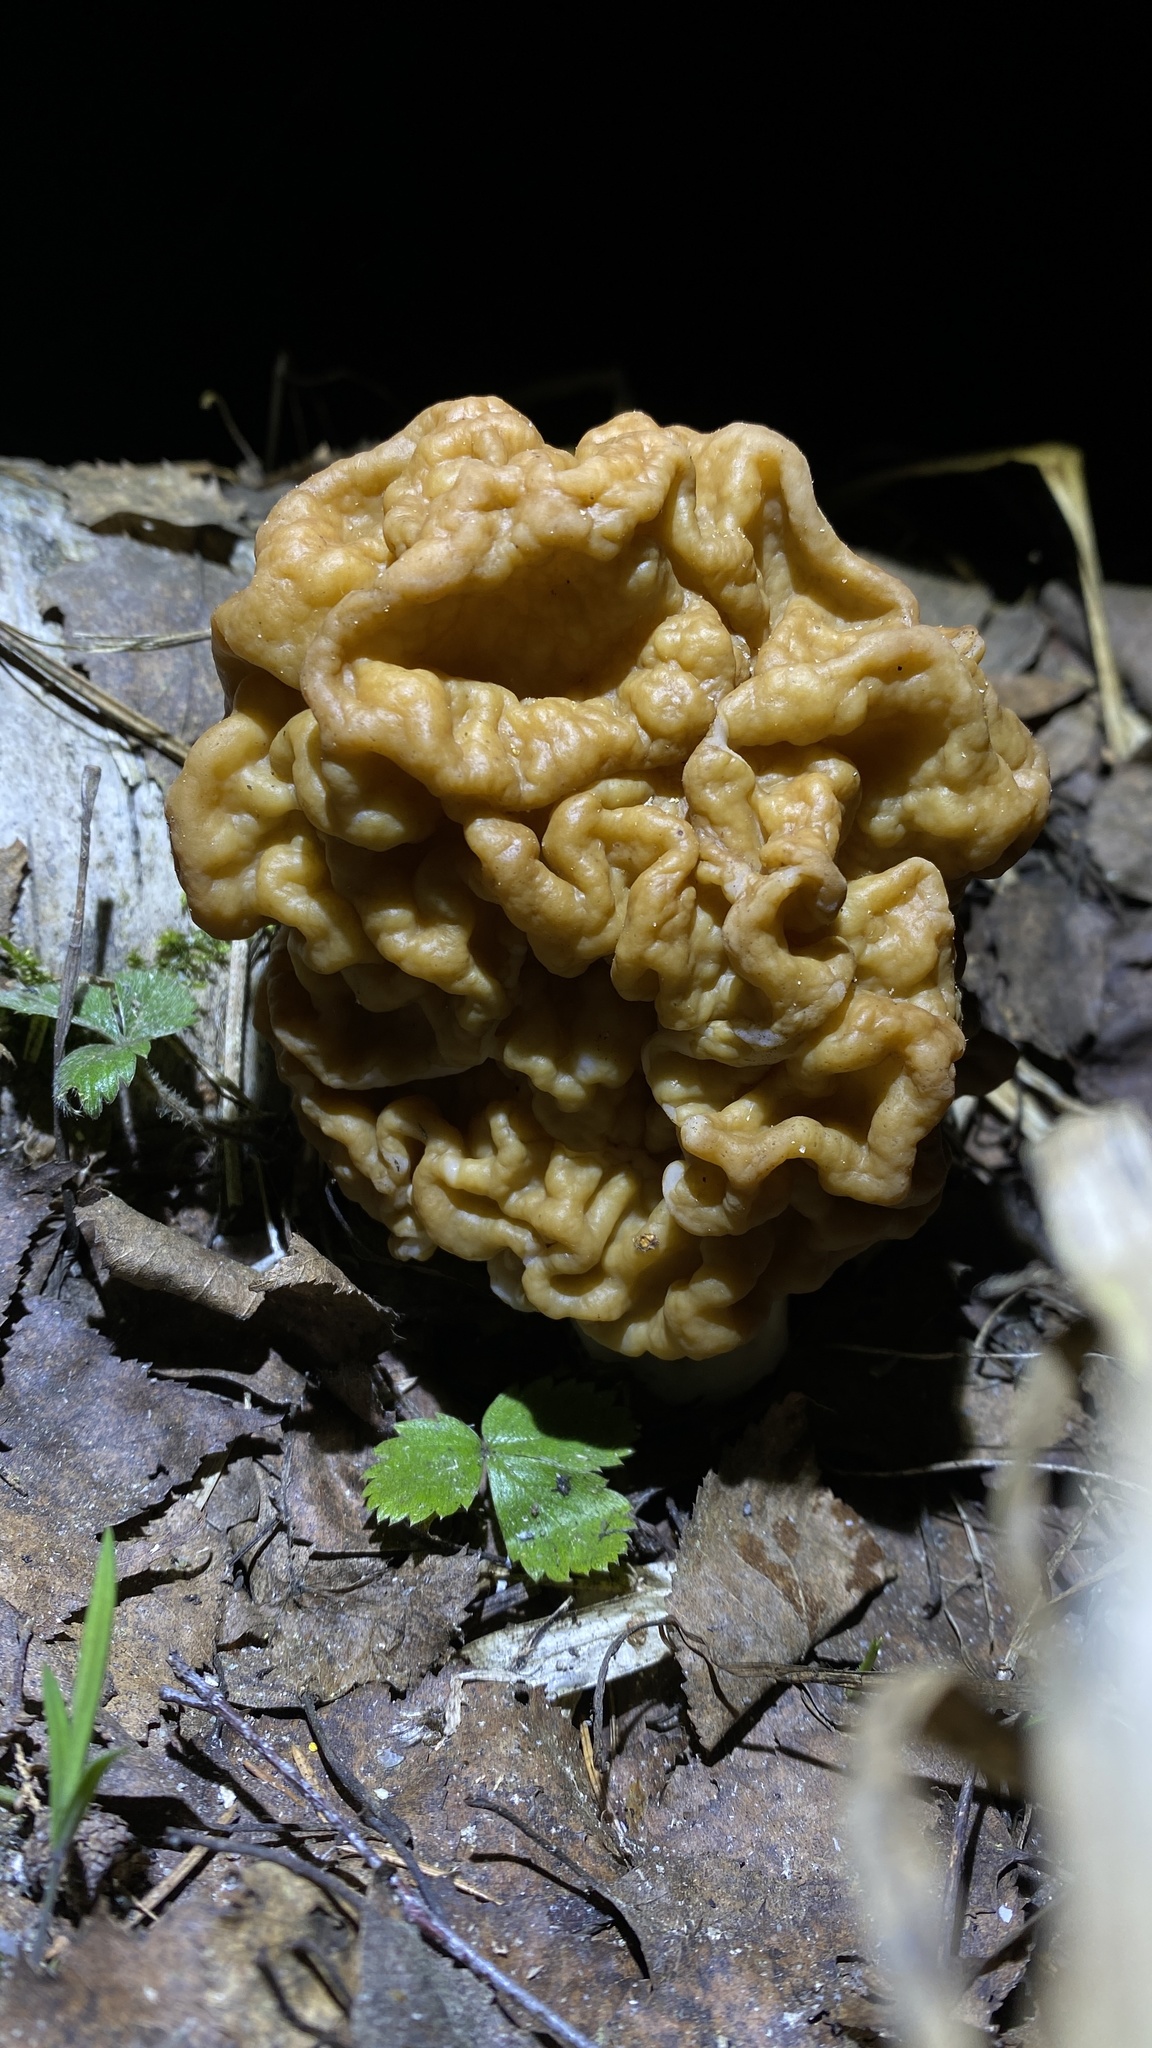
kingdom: Fungi
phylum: Ascomycota
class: Pezizomycetes
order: Pezizales
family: Discinaceae
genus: Gyromitra
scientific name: Gyromitra gigas
